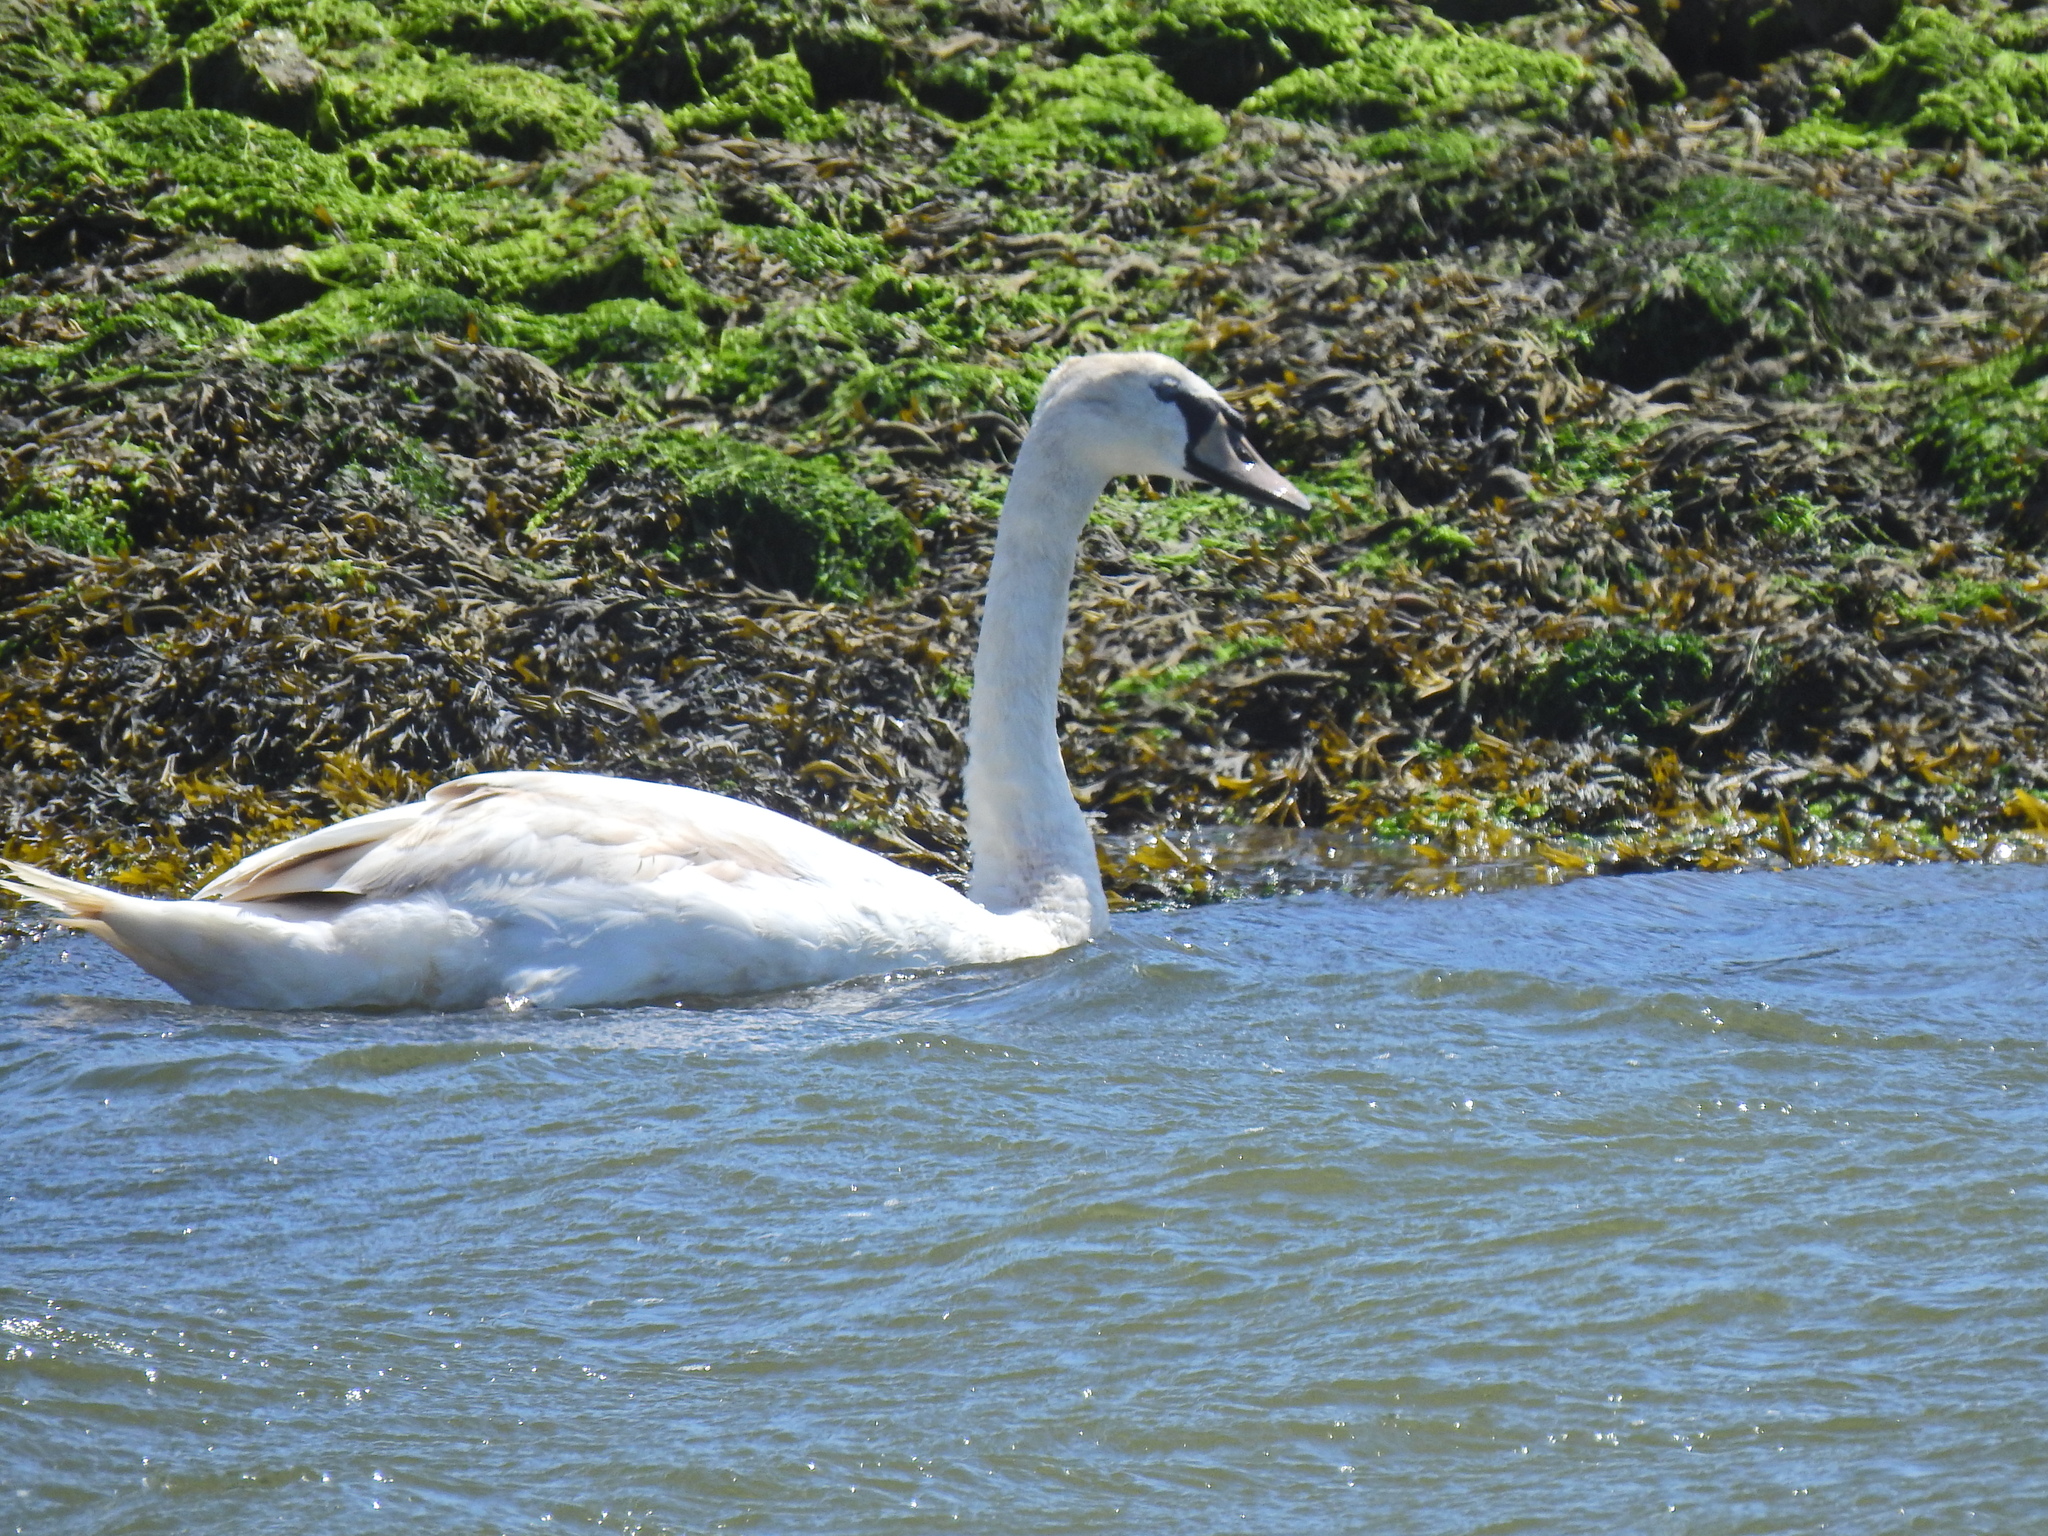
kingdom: Animalia
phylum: Chordata
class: Aves
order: Anseriformes
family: Anatidae
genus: Cygnus
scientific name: Cygnus olor
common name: Mute swan
